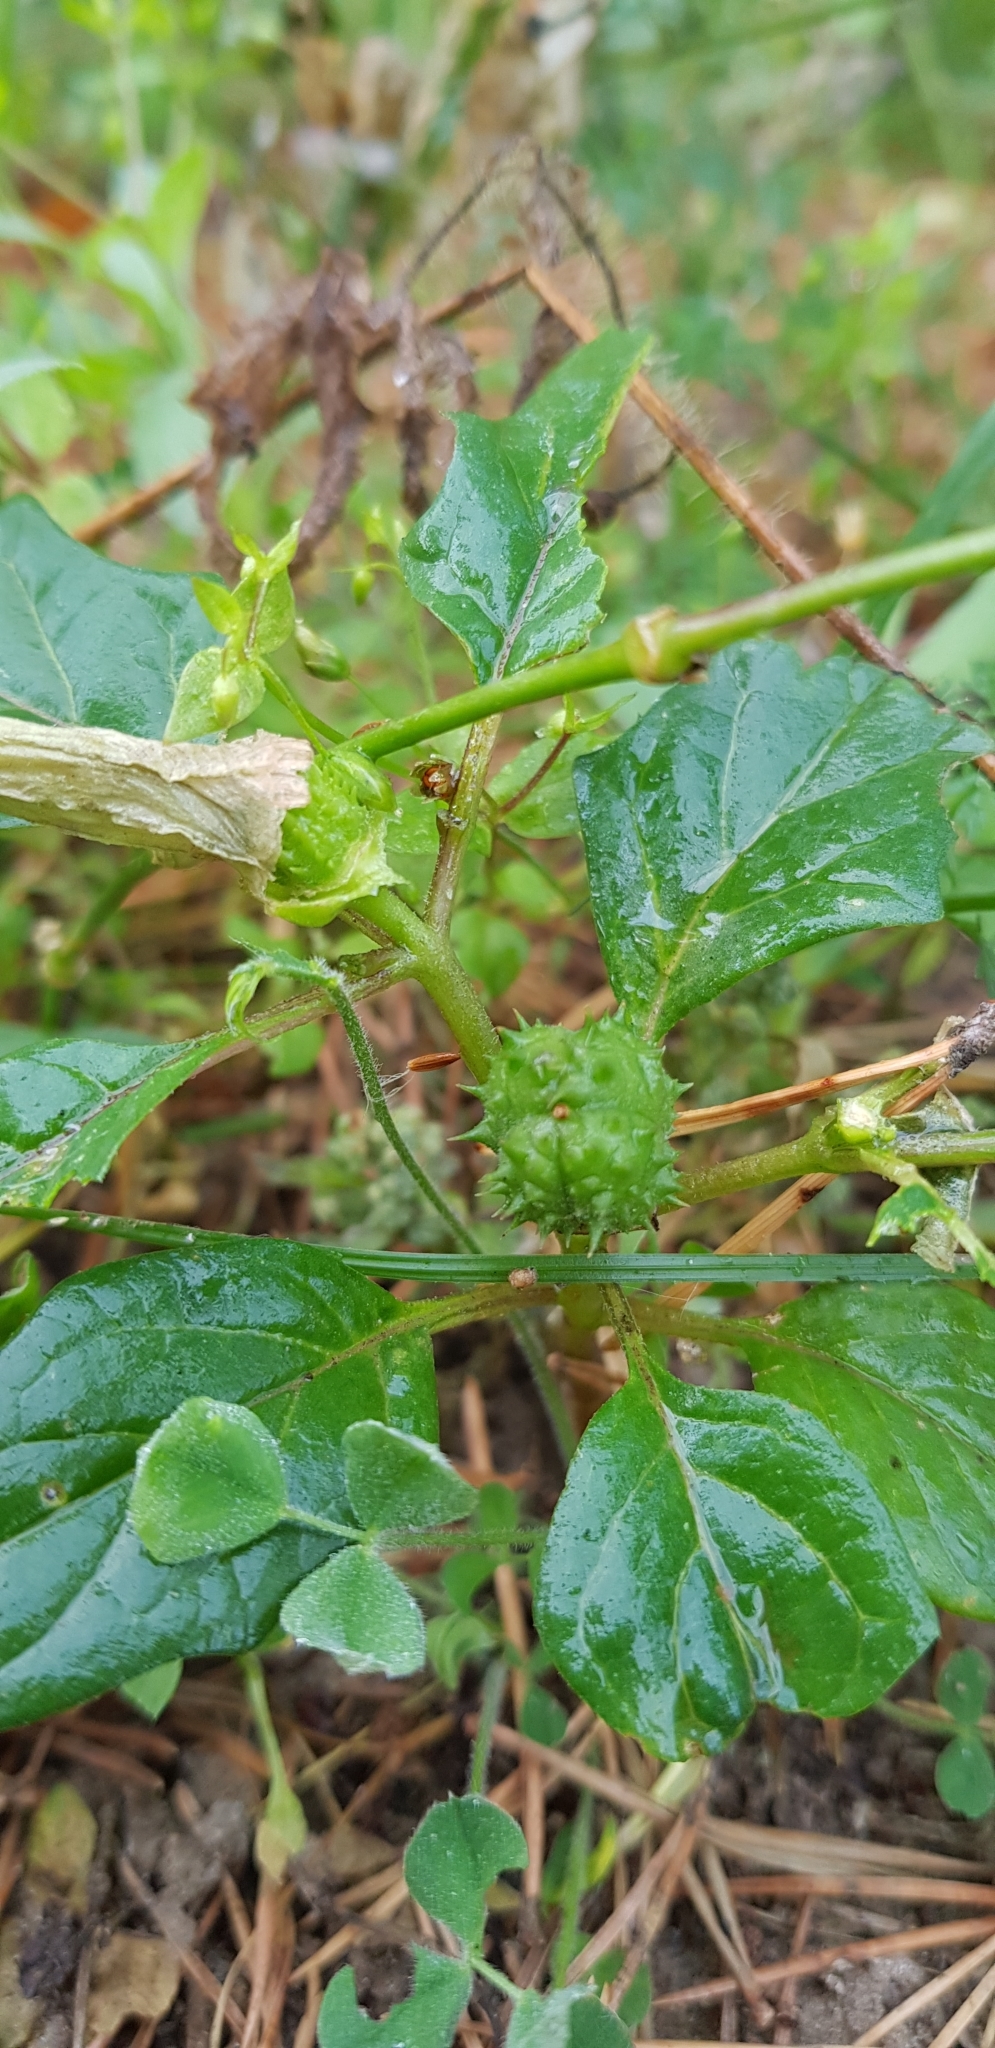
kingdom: Plantae
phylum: Tracheophyta
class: Magnoliopsida
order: Solanales
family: Solanaceae
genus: Datura
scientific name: Datura stramonium
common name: Thorn-apple
